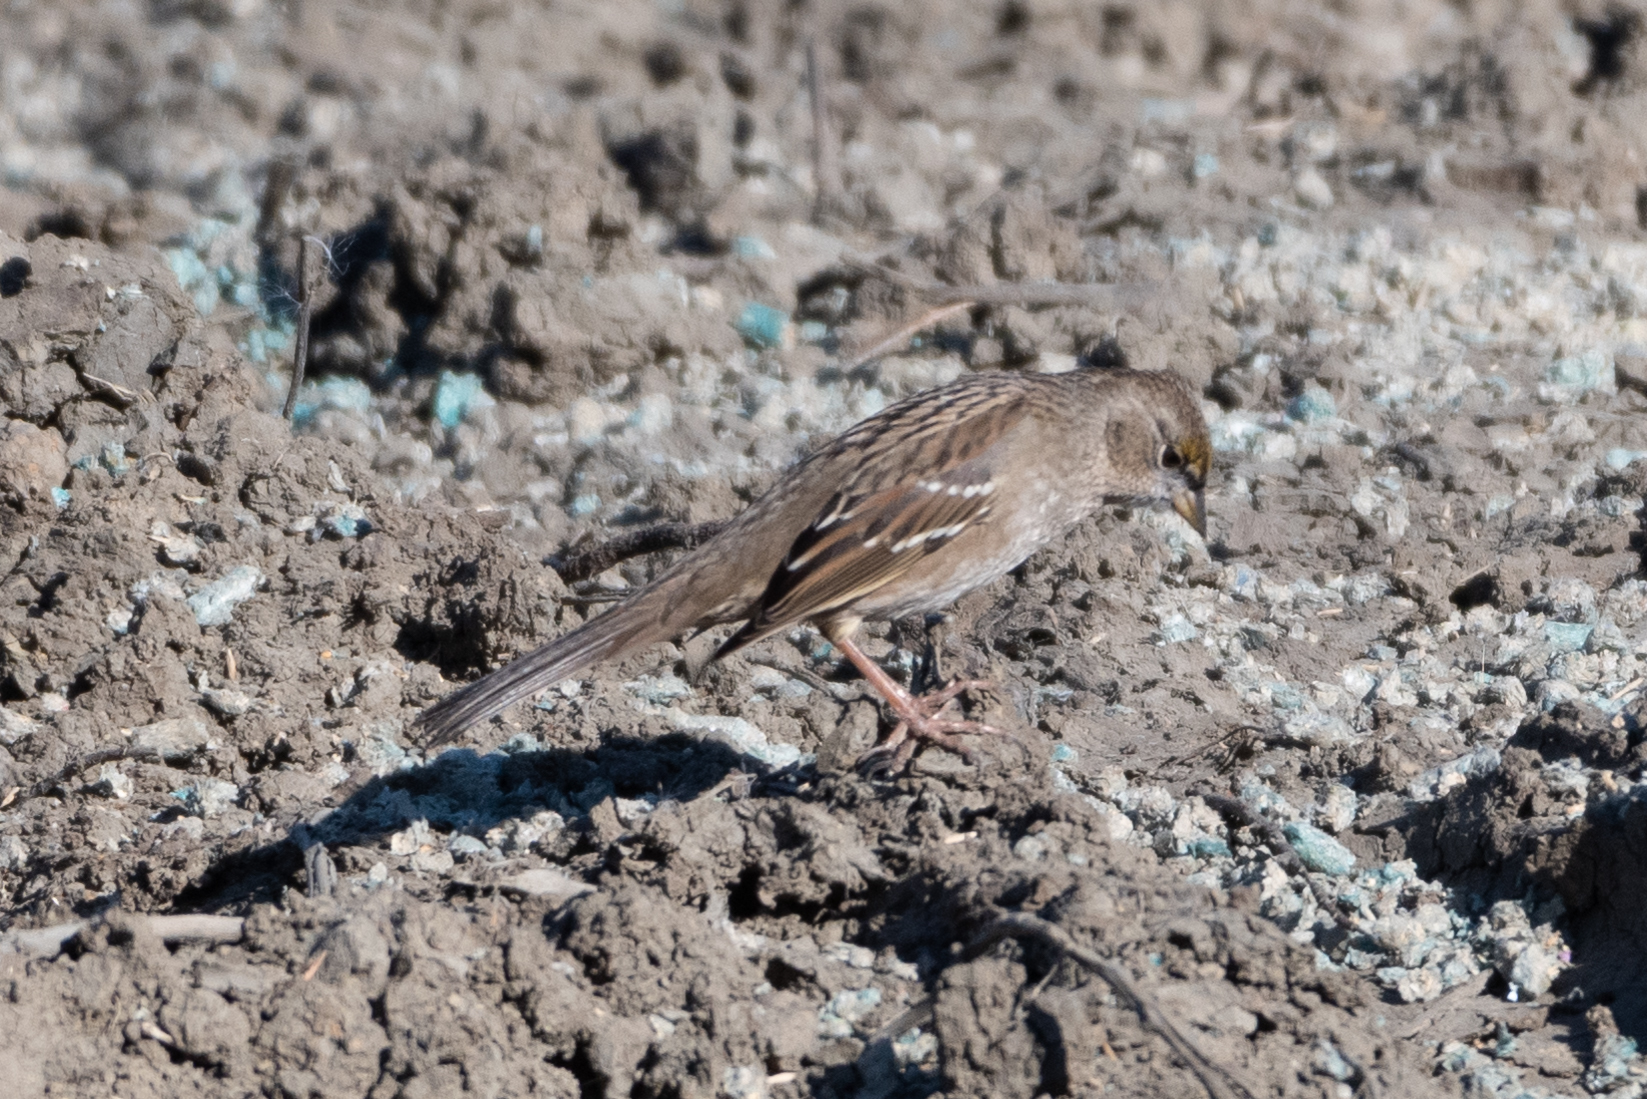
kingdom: Animalia
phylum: Chordata
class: Aves
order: Passeriformes
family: Passerellidae
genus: Zonotrichia
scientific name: Zonotrichia atricapilla
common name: Golden-crowned sparrow
